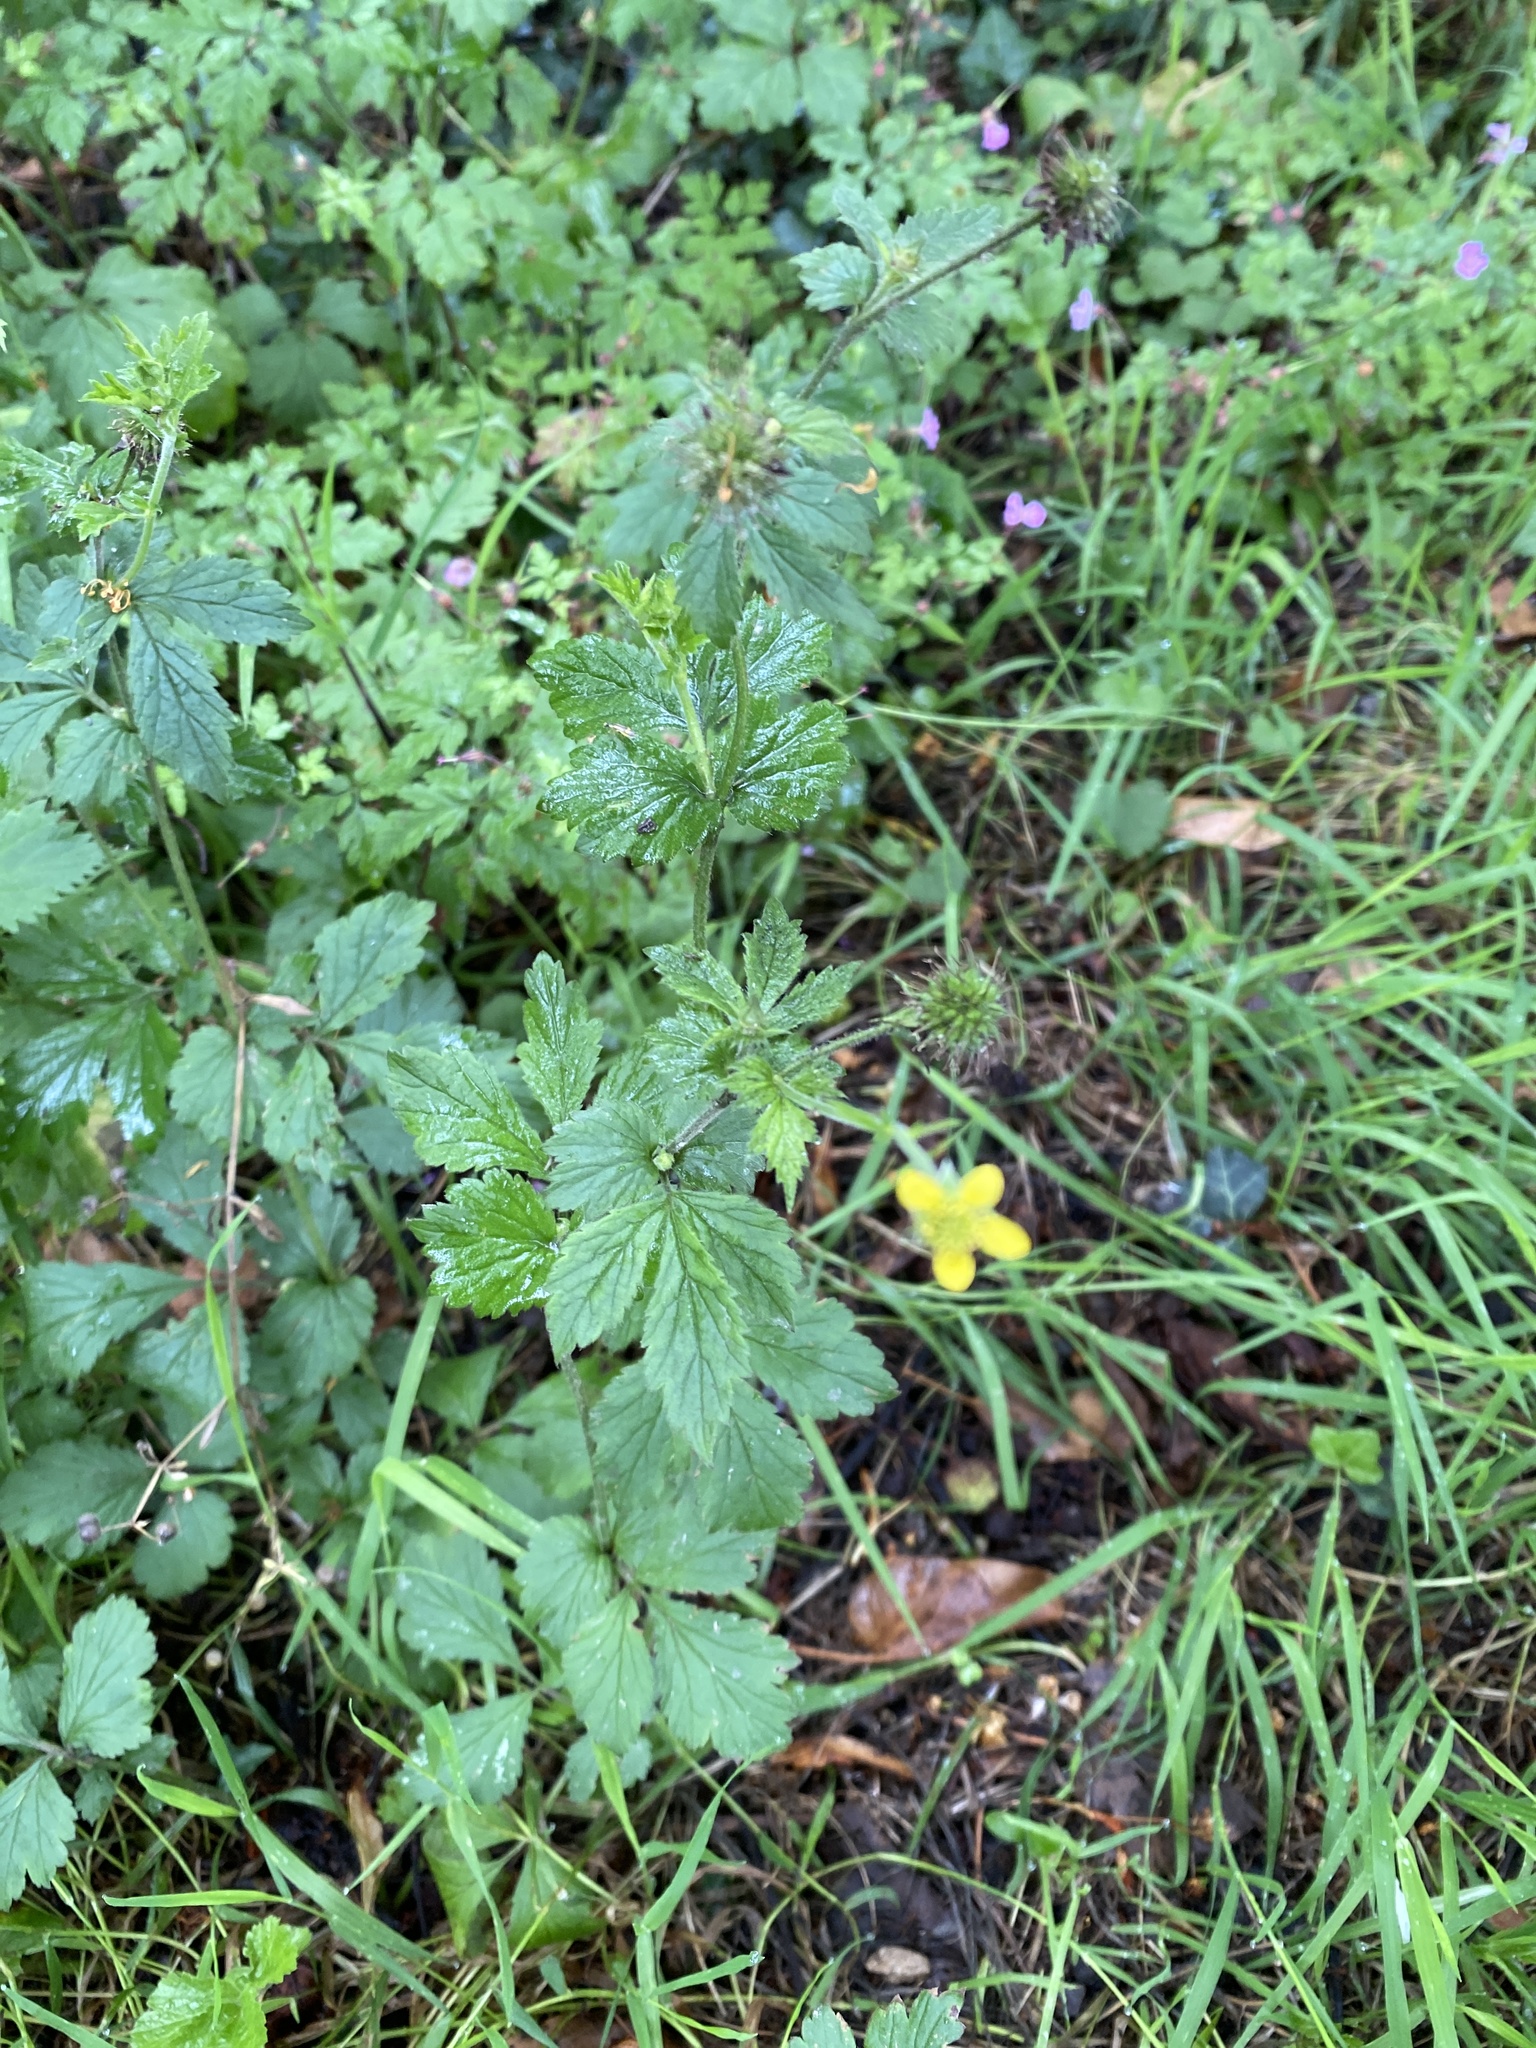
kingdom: Plantae
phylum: Tracheophyta
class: Magnoliopsida
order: Rosales
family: Rosaceae
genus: Geum
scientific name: Geum urbanum
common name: Wood avens
